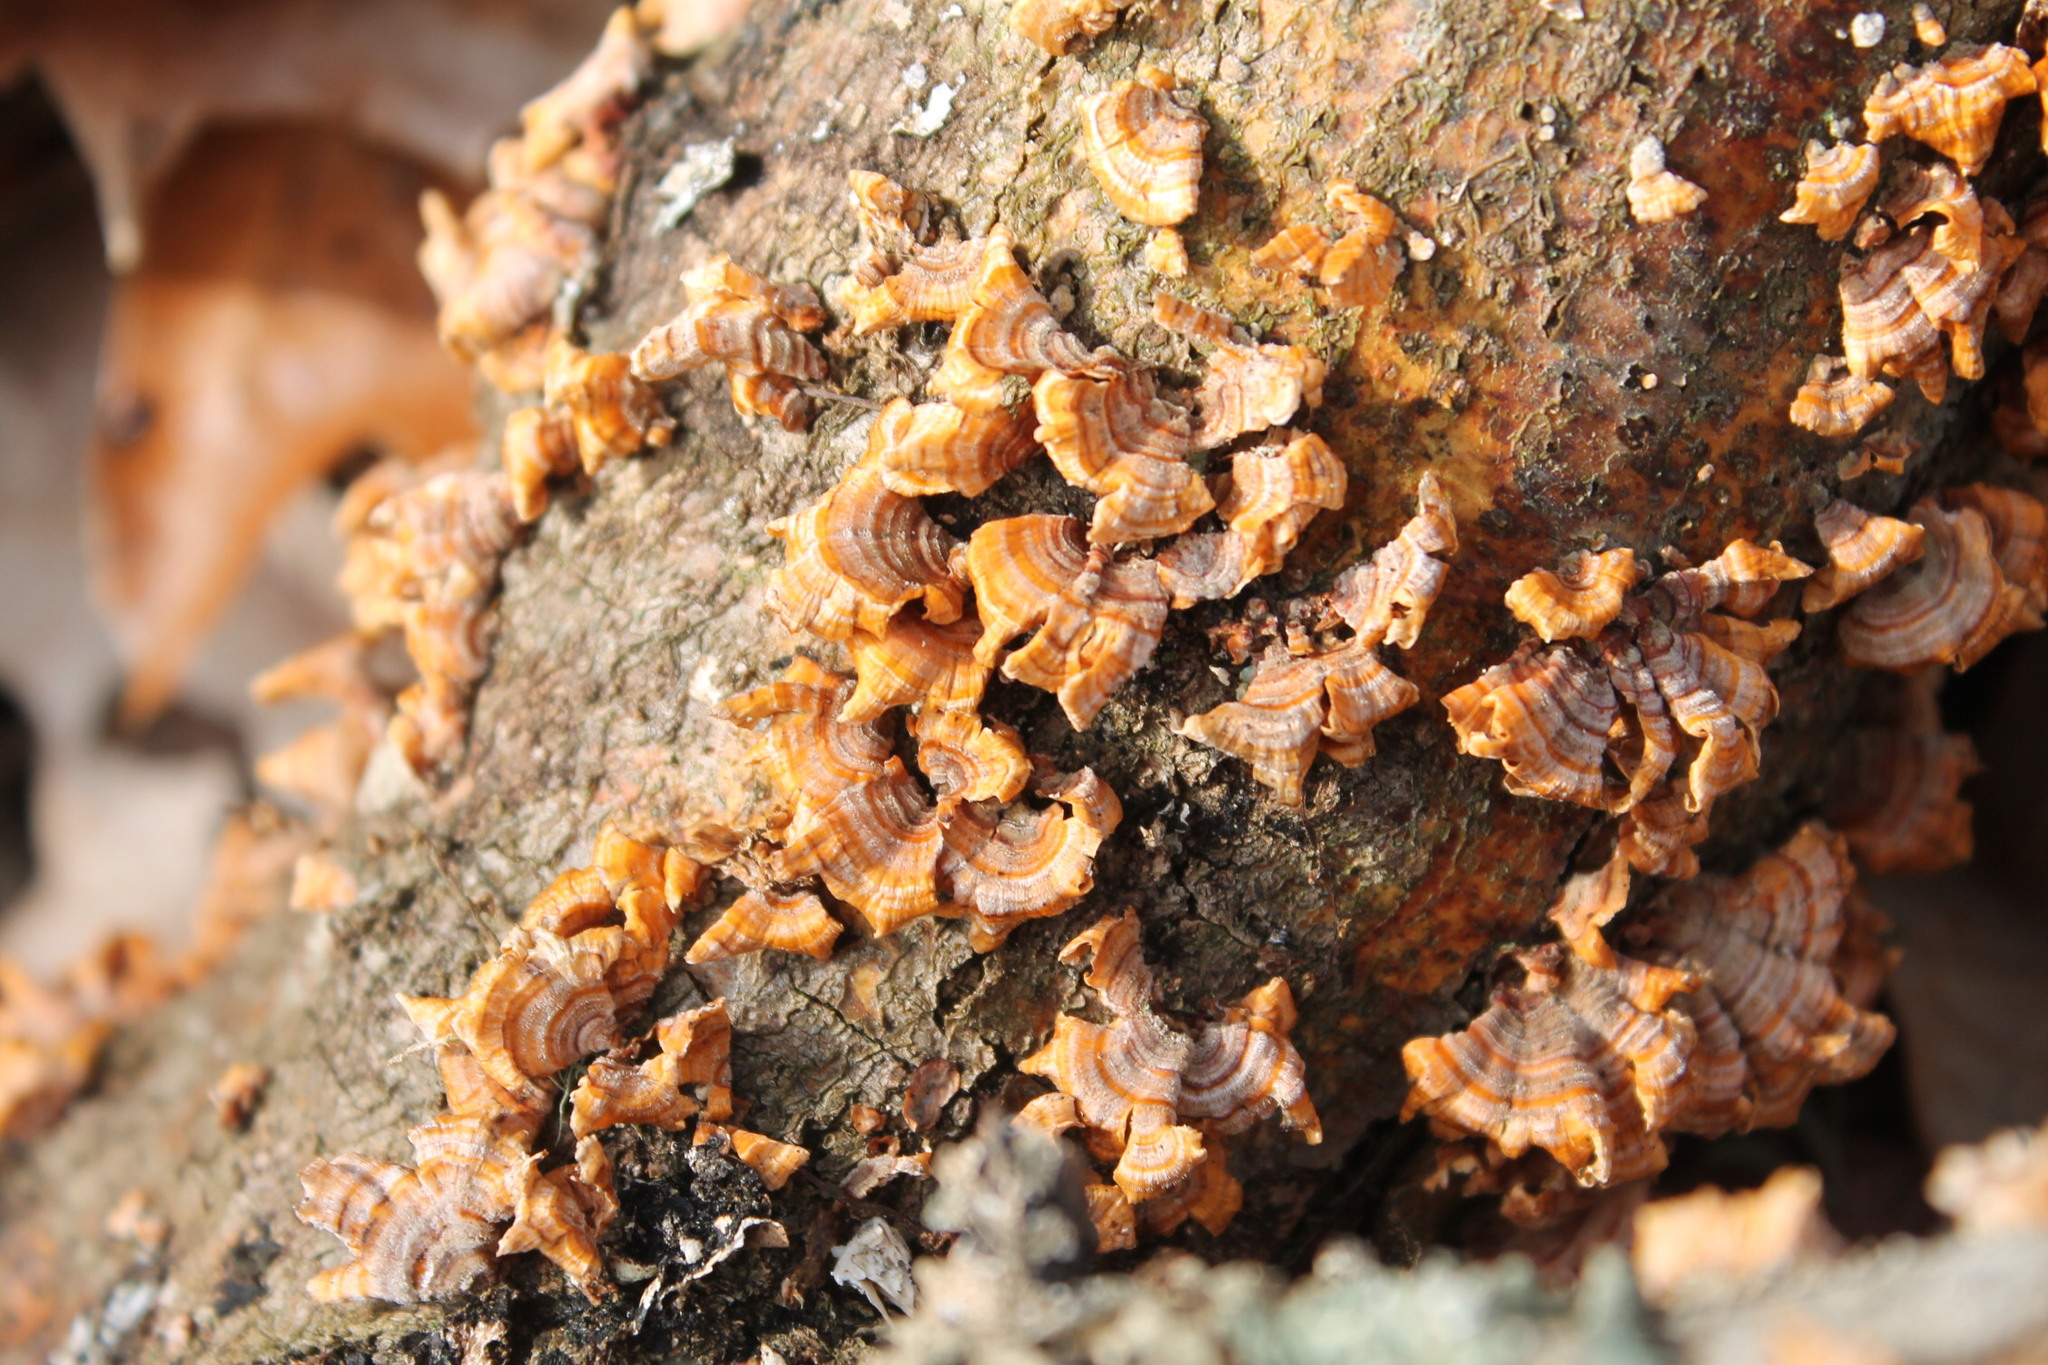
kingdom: Fungi
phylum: Basidiomycota
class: Agaricomycetes
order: Russulales
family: Stereaceae
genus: Stereum
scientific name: Stereum complicatum
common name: Crowded parchment
